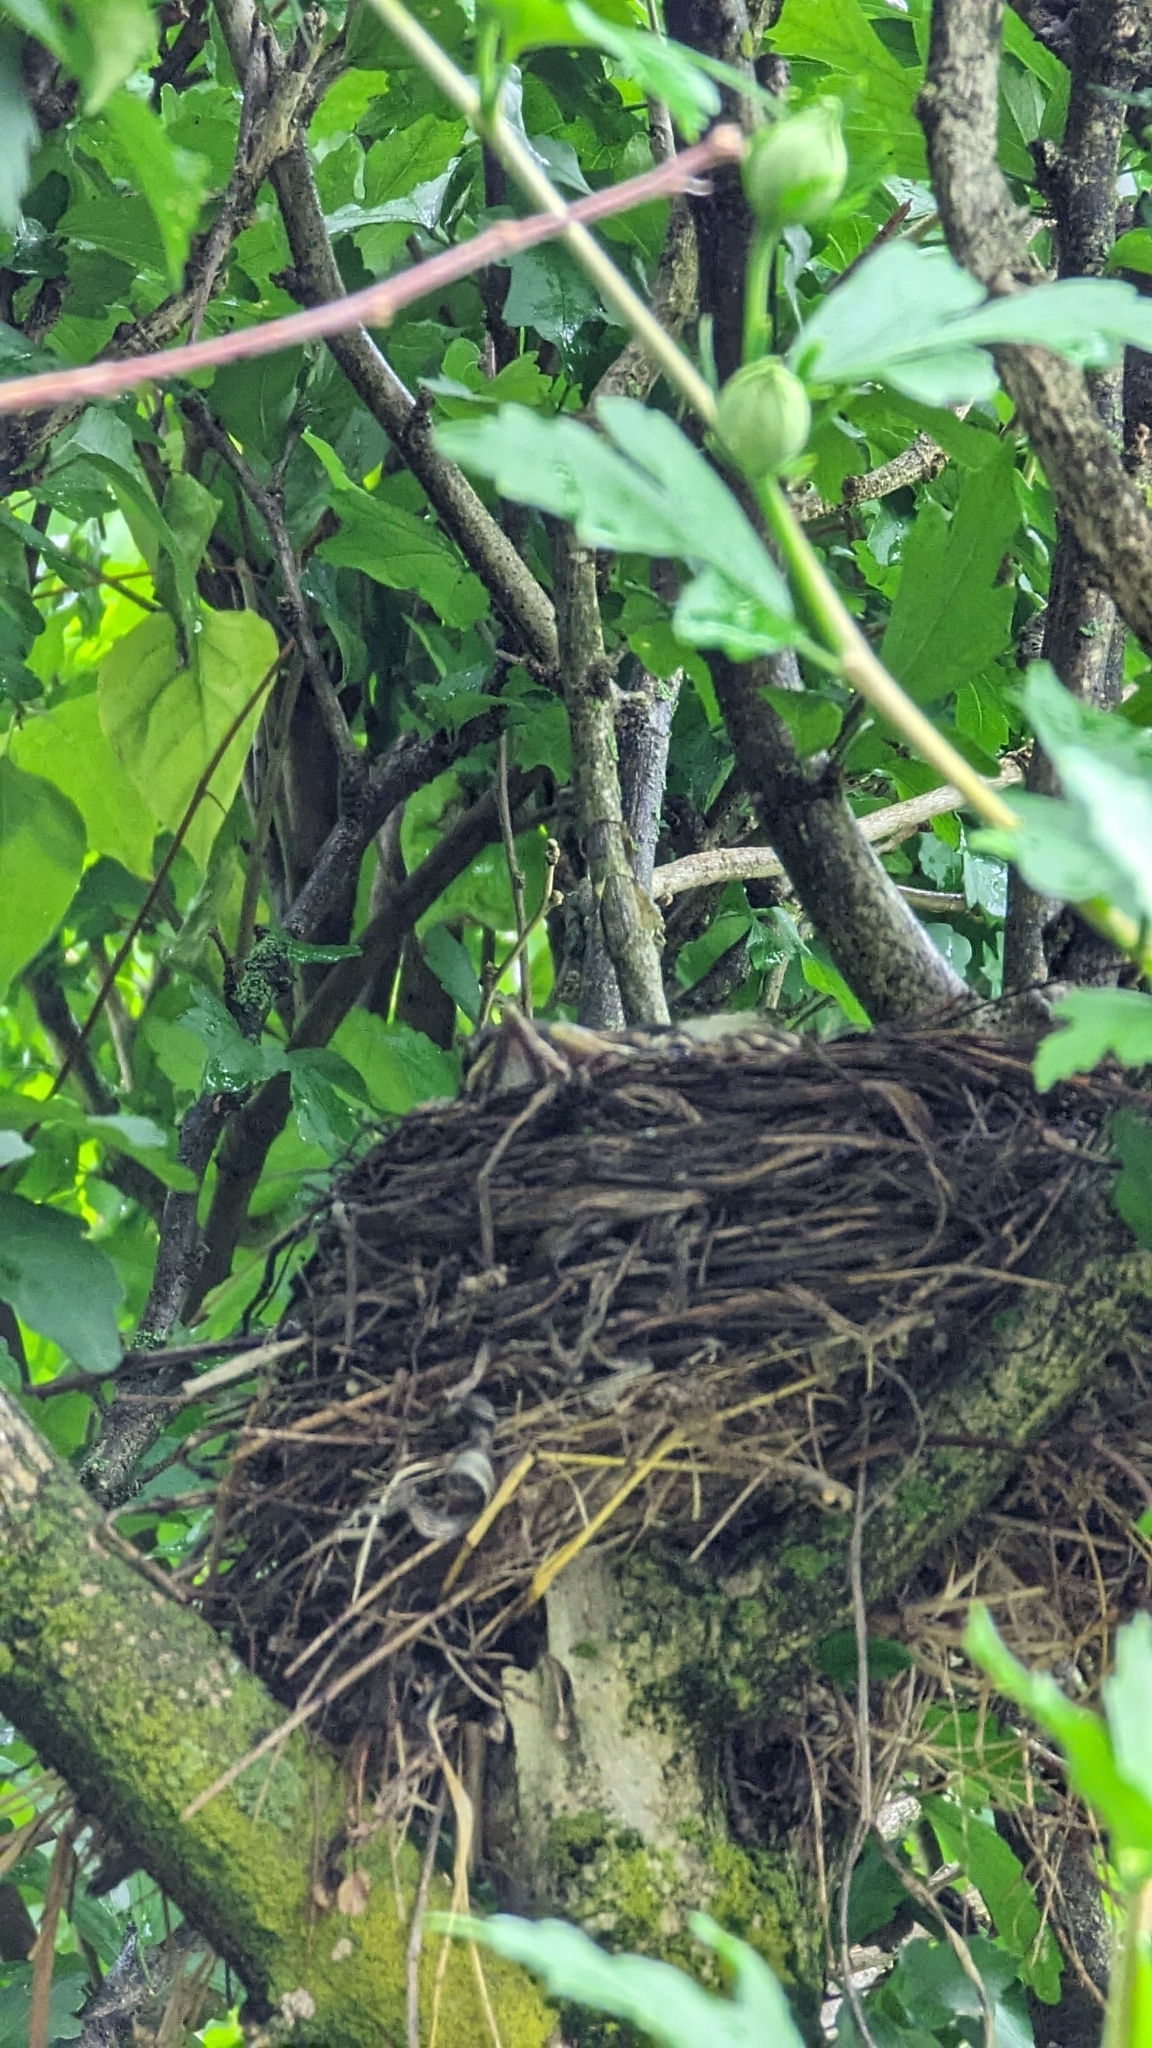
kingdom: Animalia
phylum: Chordata
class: Aves
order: Passeriformes
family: Turdidae
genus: Turdus
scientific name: Turdus migratorius
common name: American robin
